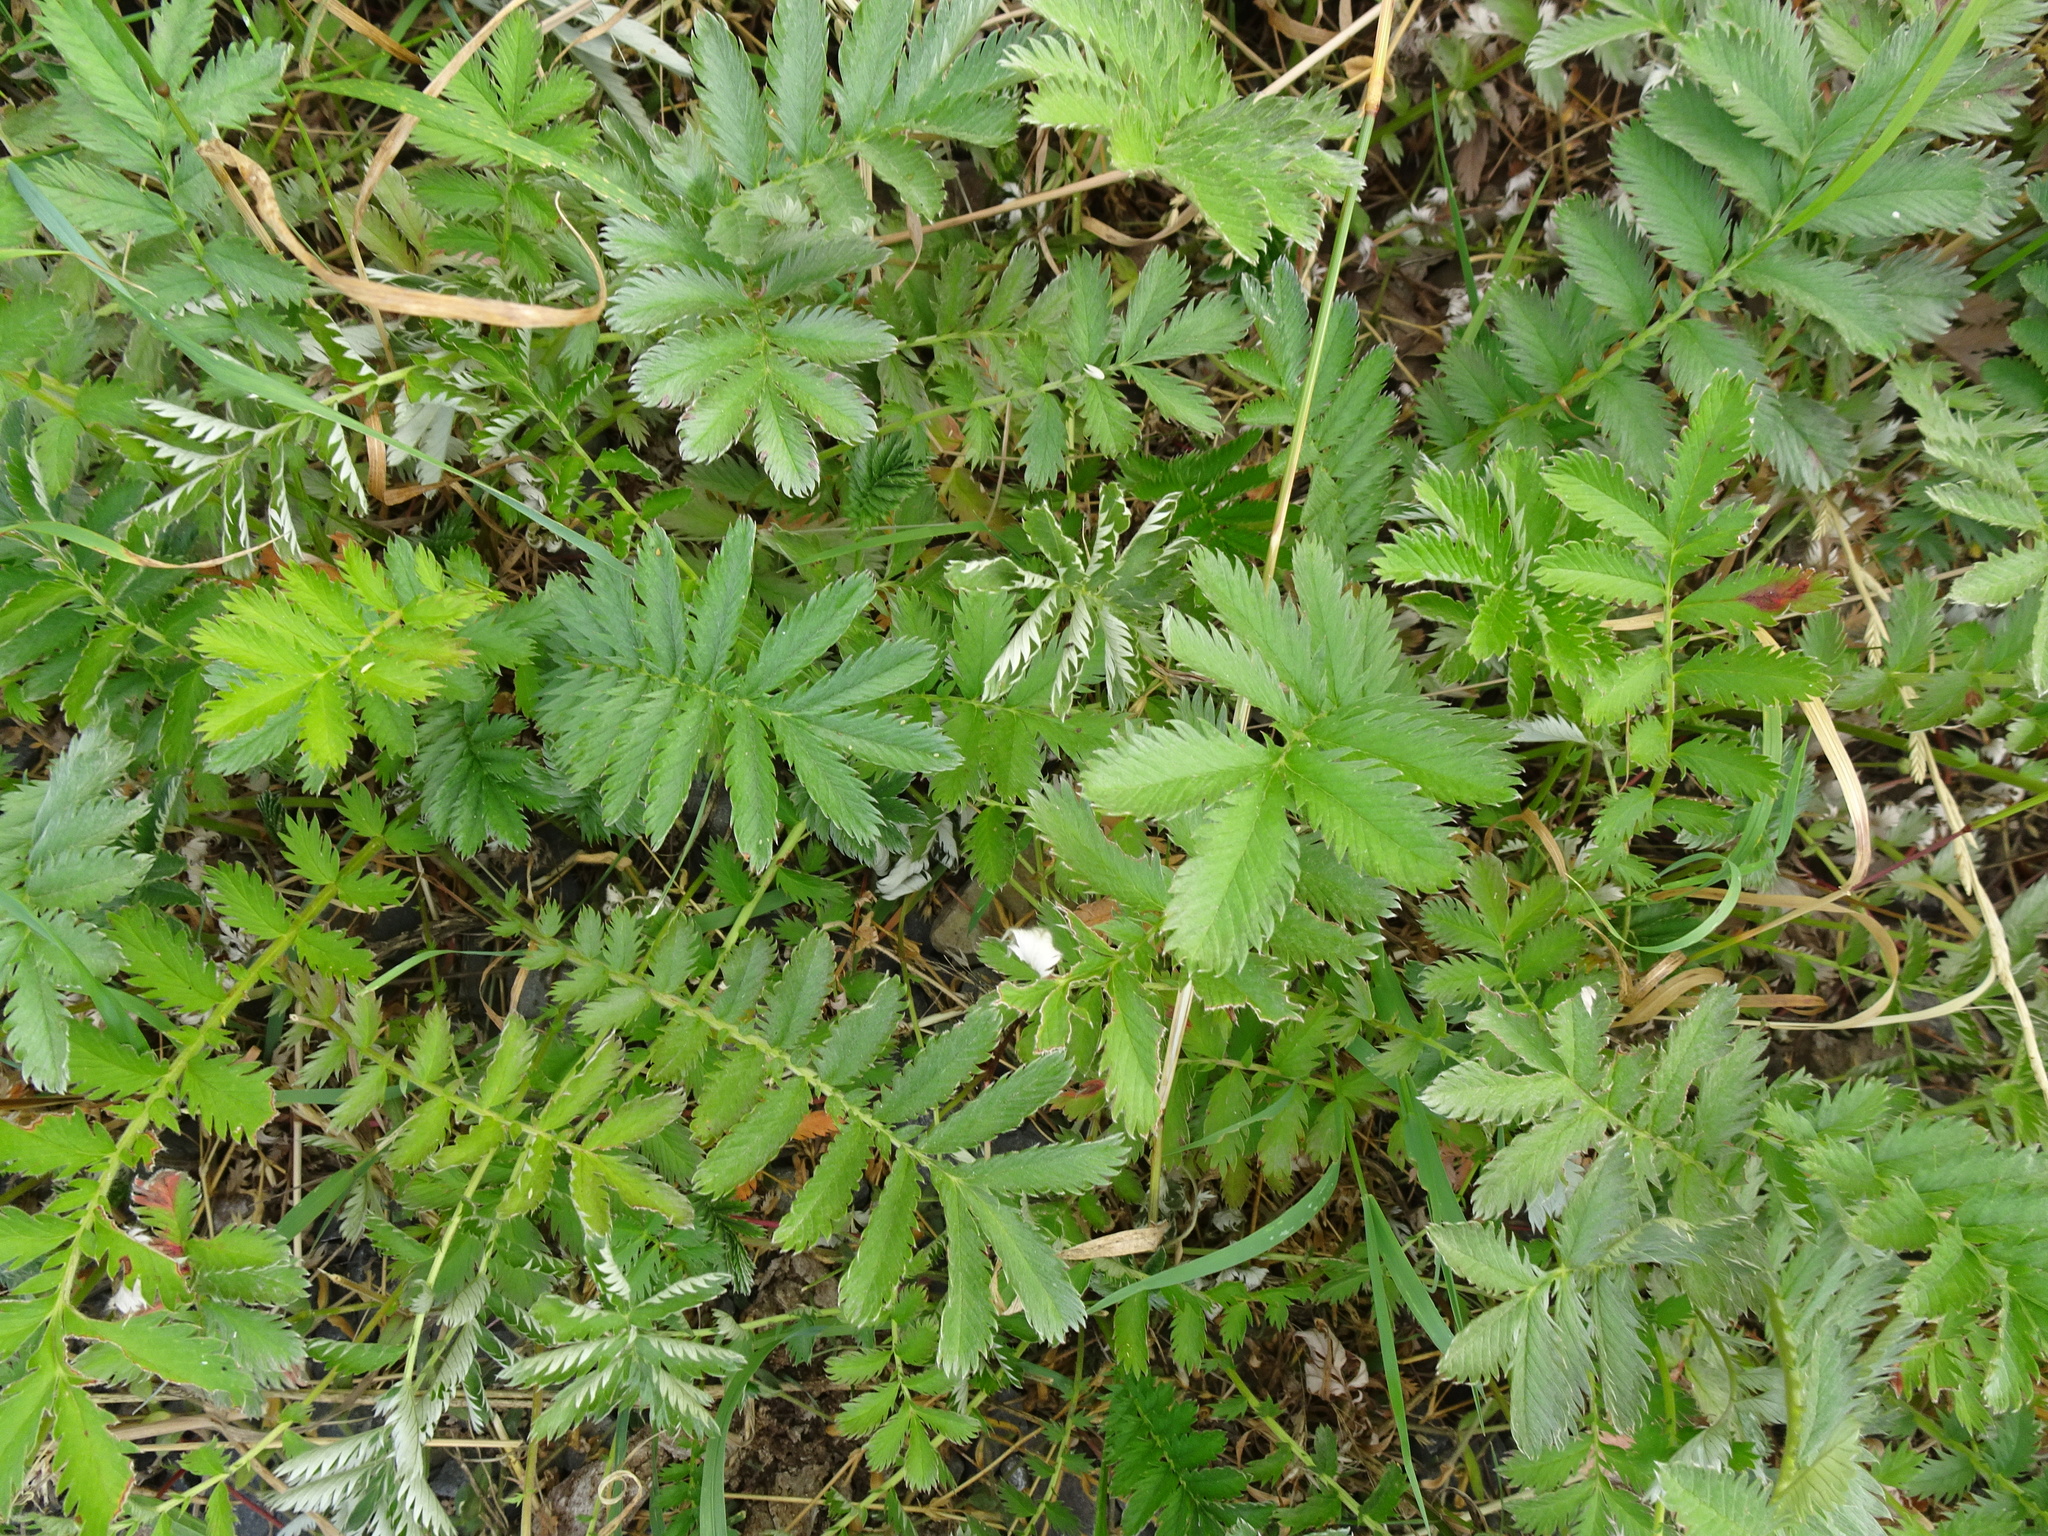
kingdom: Plantae
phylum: Tracheophyta
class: Magnoliopsida
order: Rosales
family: Rosaceae
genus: Argentina
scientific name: Argentina anserina
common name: Common silverweed
